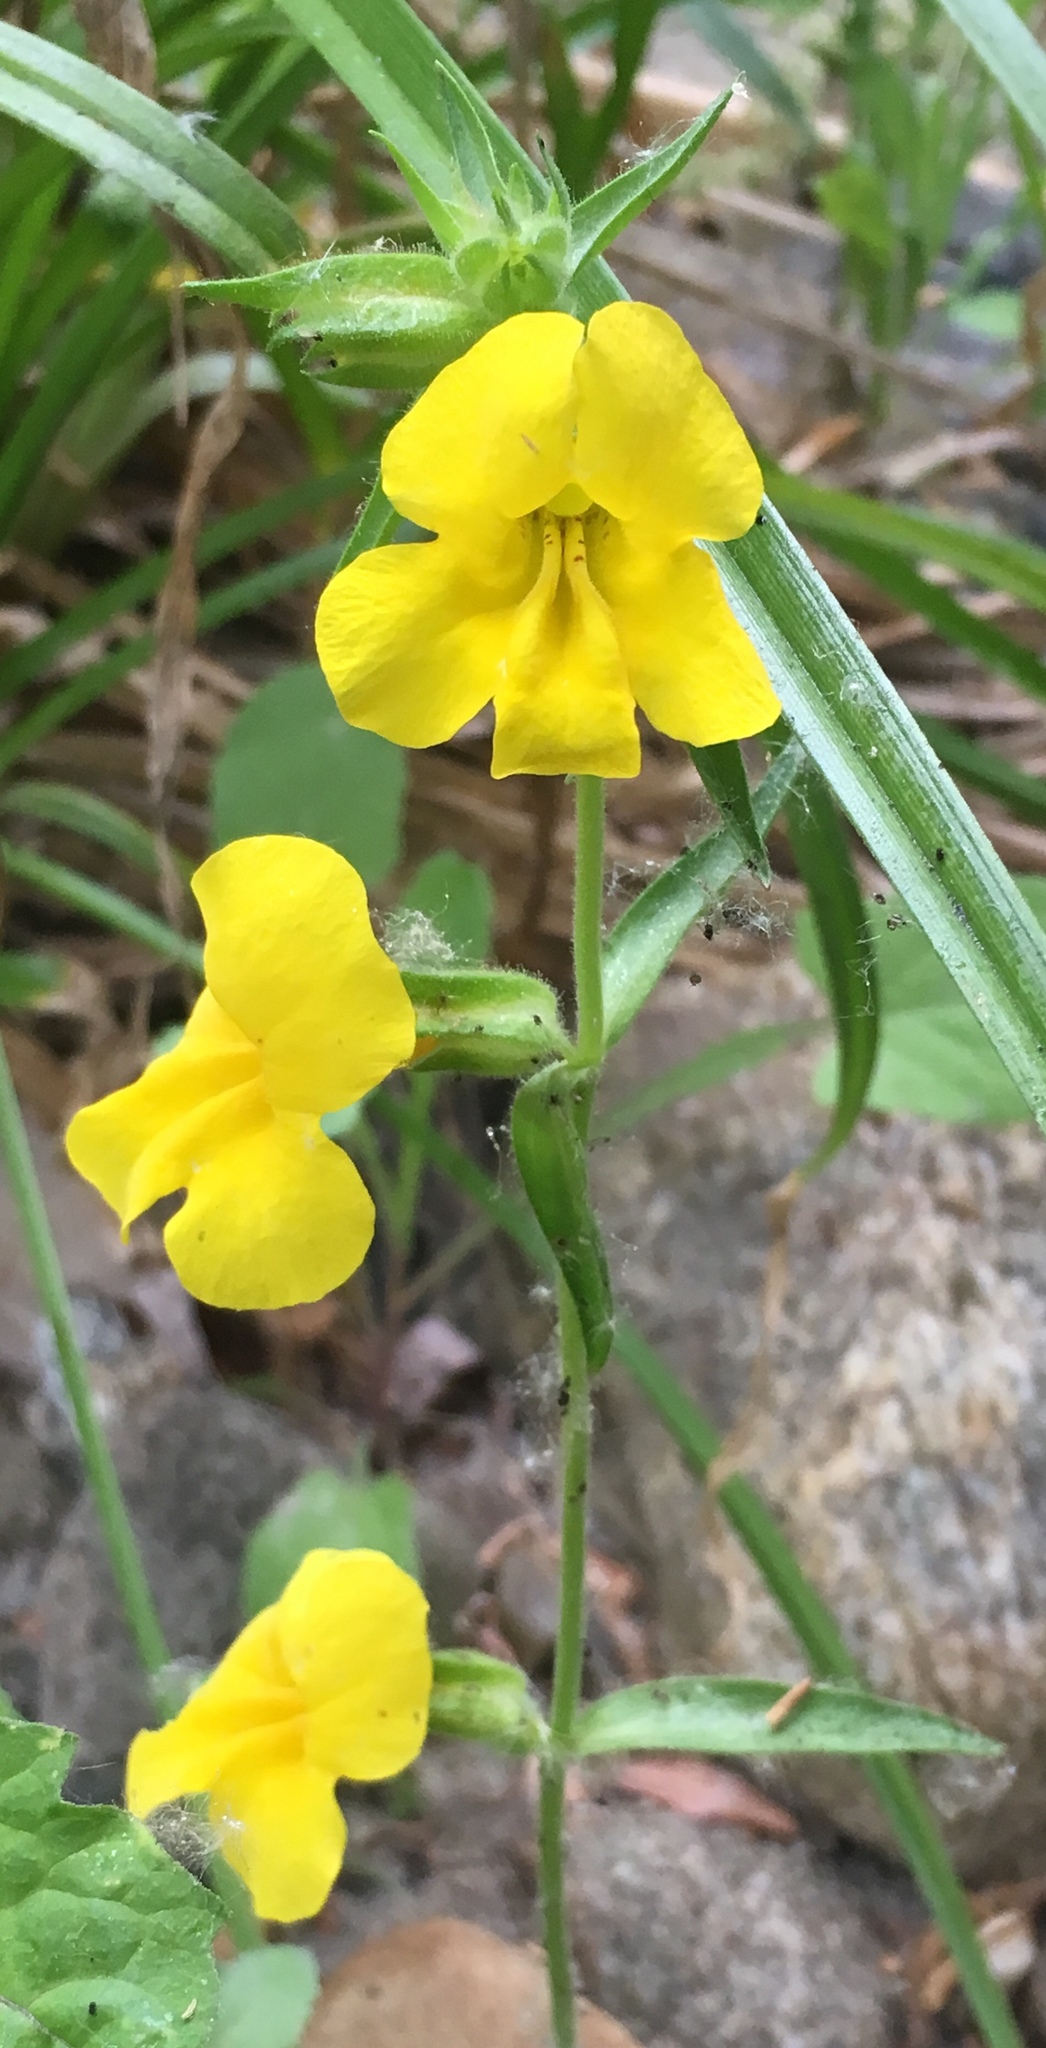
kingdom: Plantae
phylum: Tracheophyta
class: Magnoliopsida
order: Lamiales
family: Phrymaceae
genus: Diplacus
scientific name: Diplacus brevipes
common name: Wide-throat yellow monkey-flower
